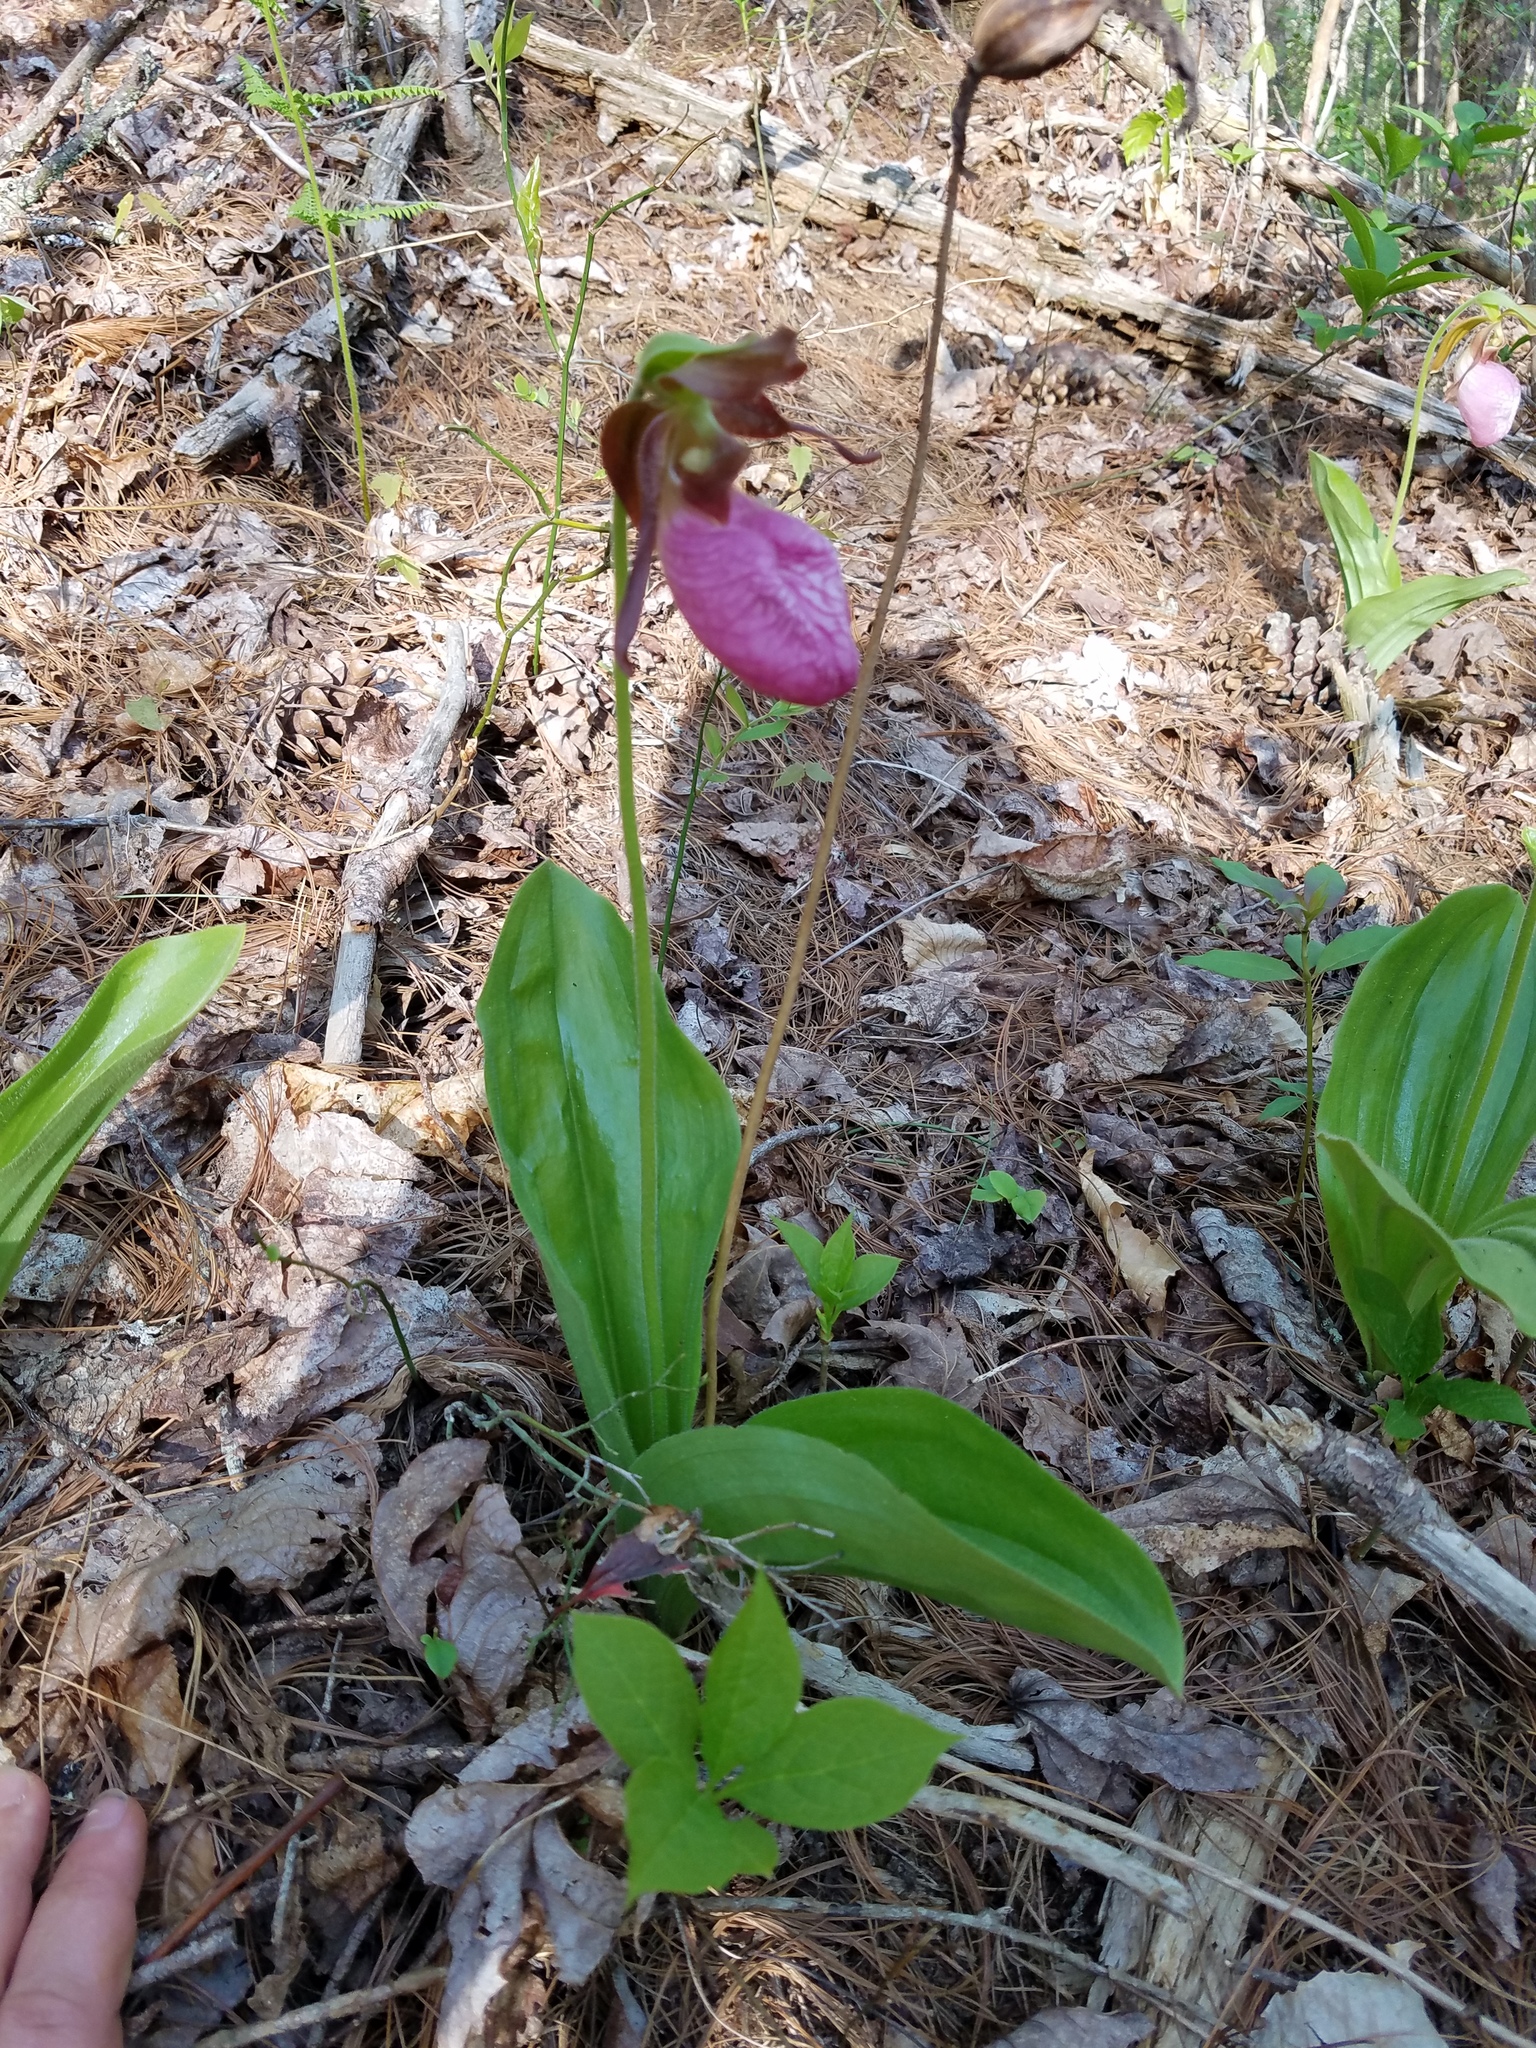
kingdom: Plantae
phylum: Tracheophyta
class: Liliopsida
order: Asparagales
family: Orchidaceae
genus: Cypripedium
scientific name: Cypripedium acaule
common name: Pink lady's-slipper
